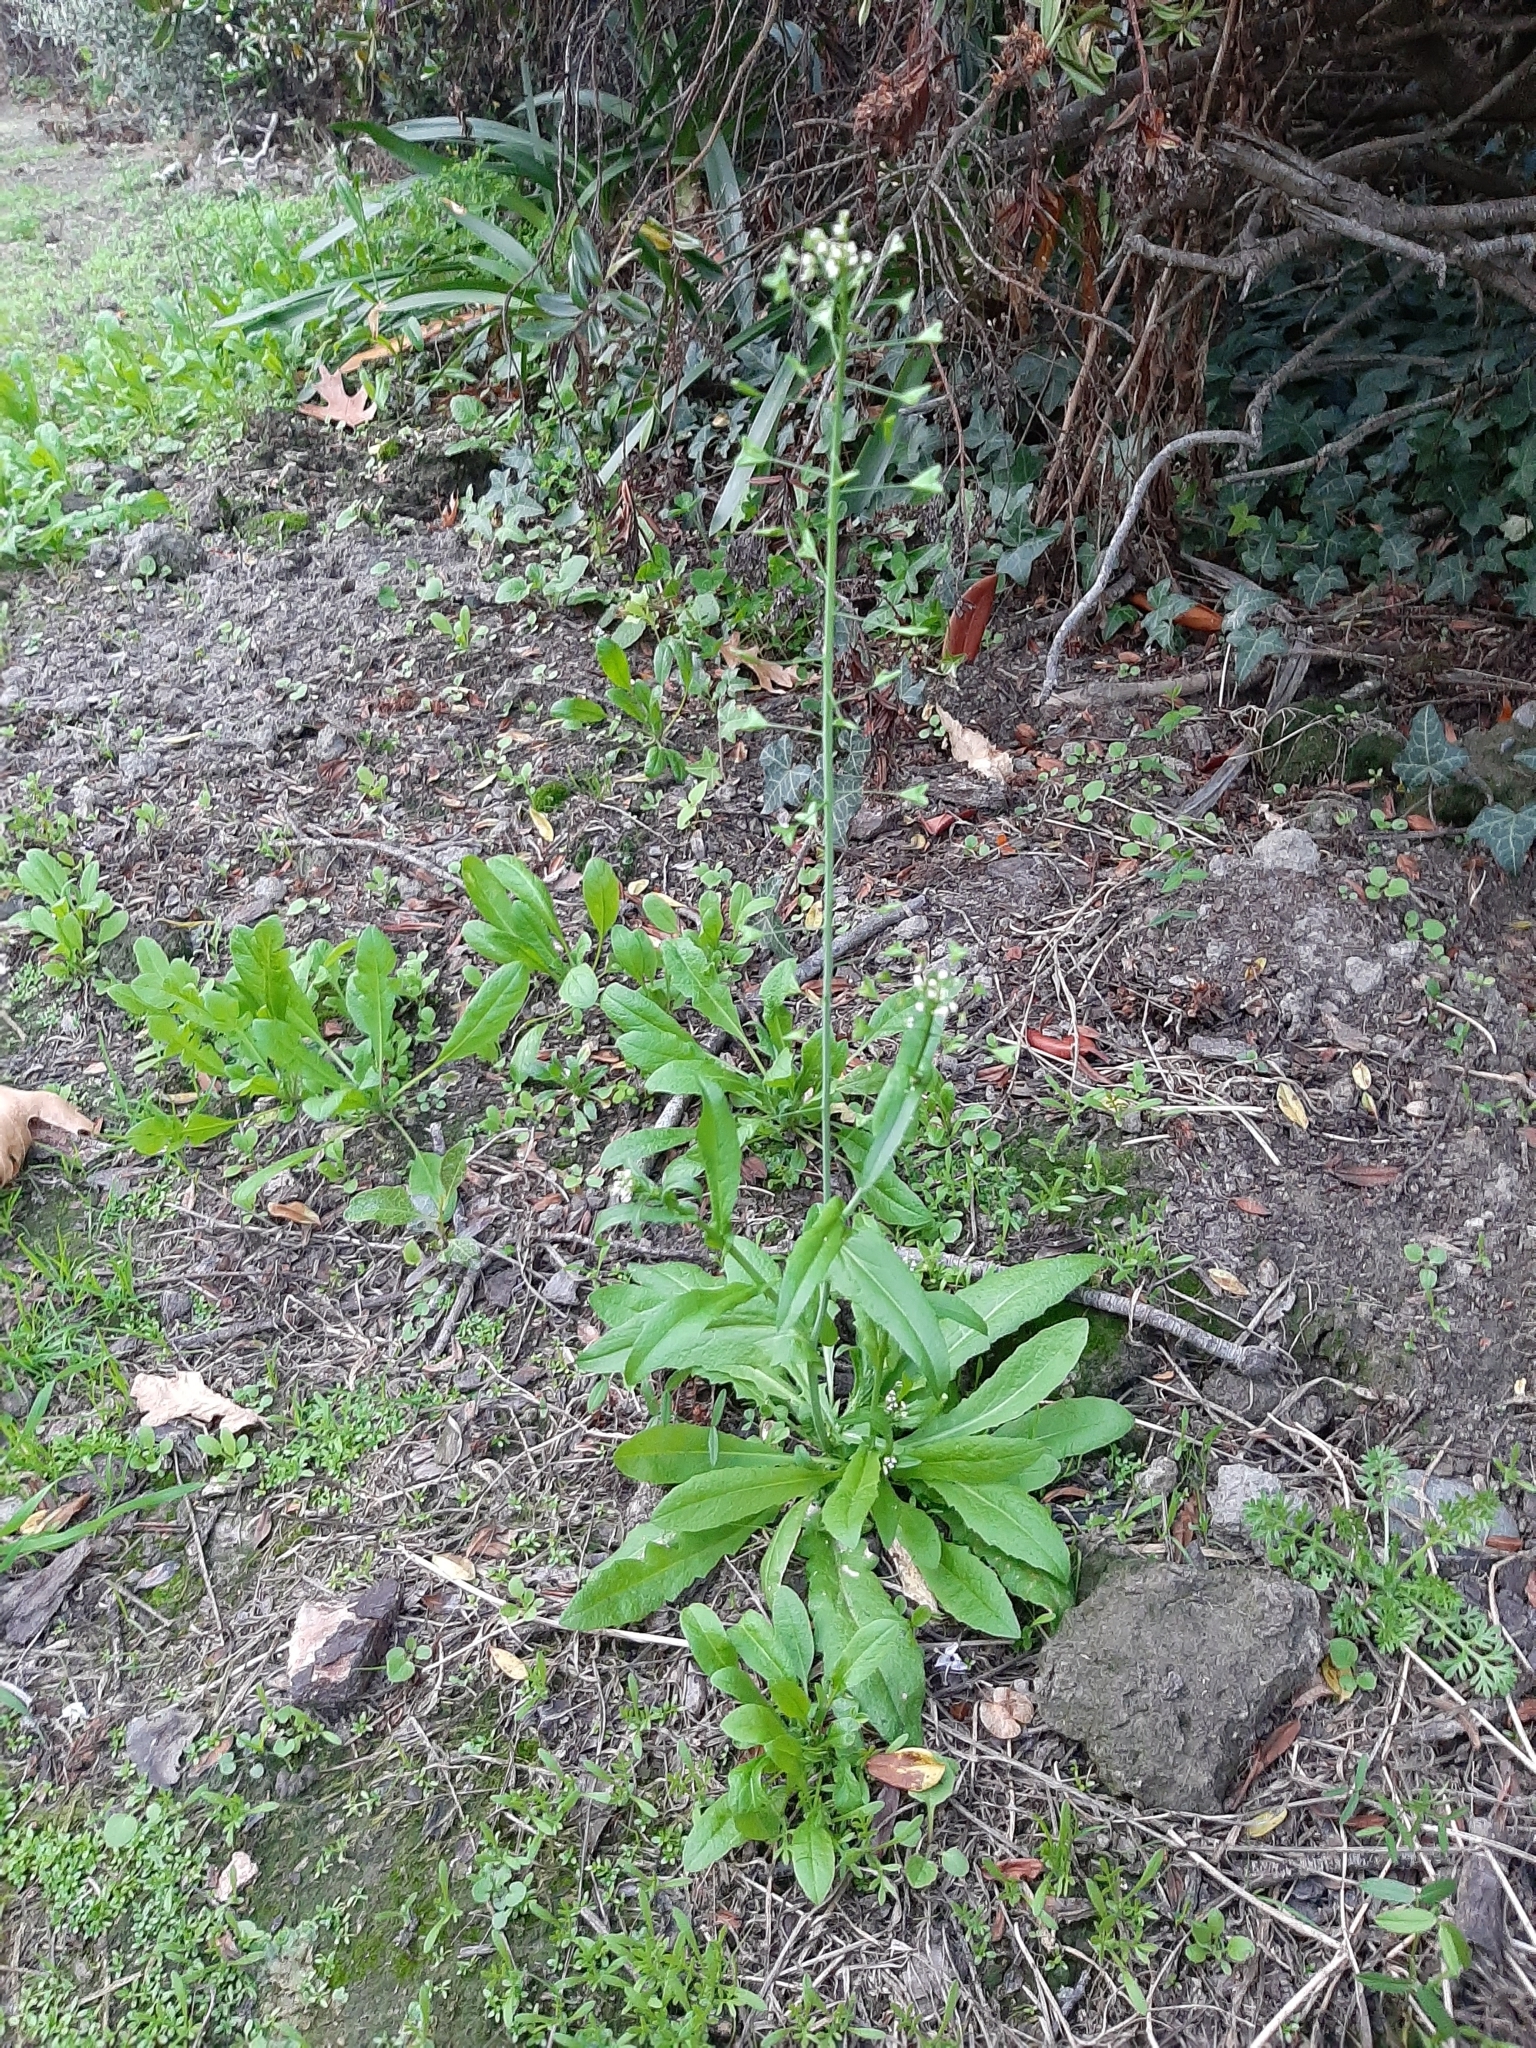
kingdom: Plantae
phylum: Tracheophyta
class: Magnoliopsida
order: Brassicales
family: Brassicaceae
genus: Capsella
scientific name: Capsella bursa-pastoris
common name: Shepherd's purse
